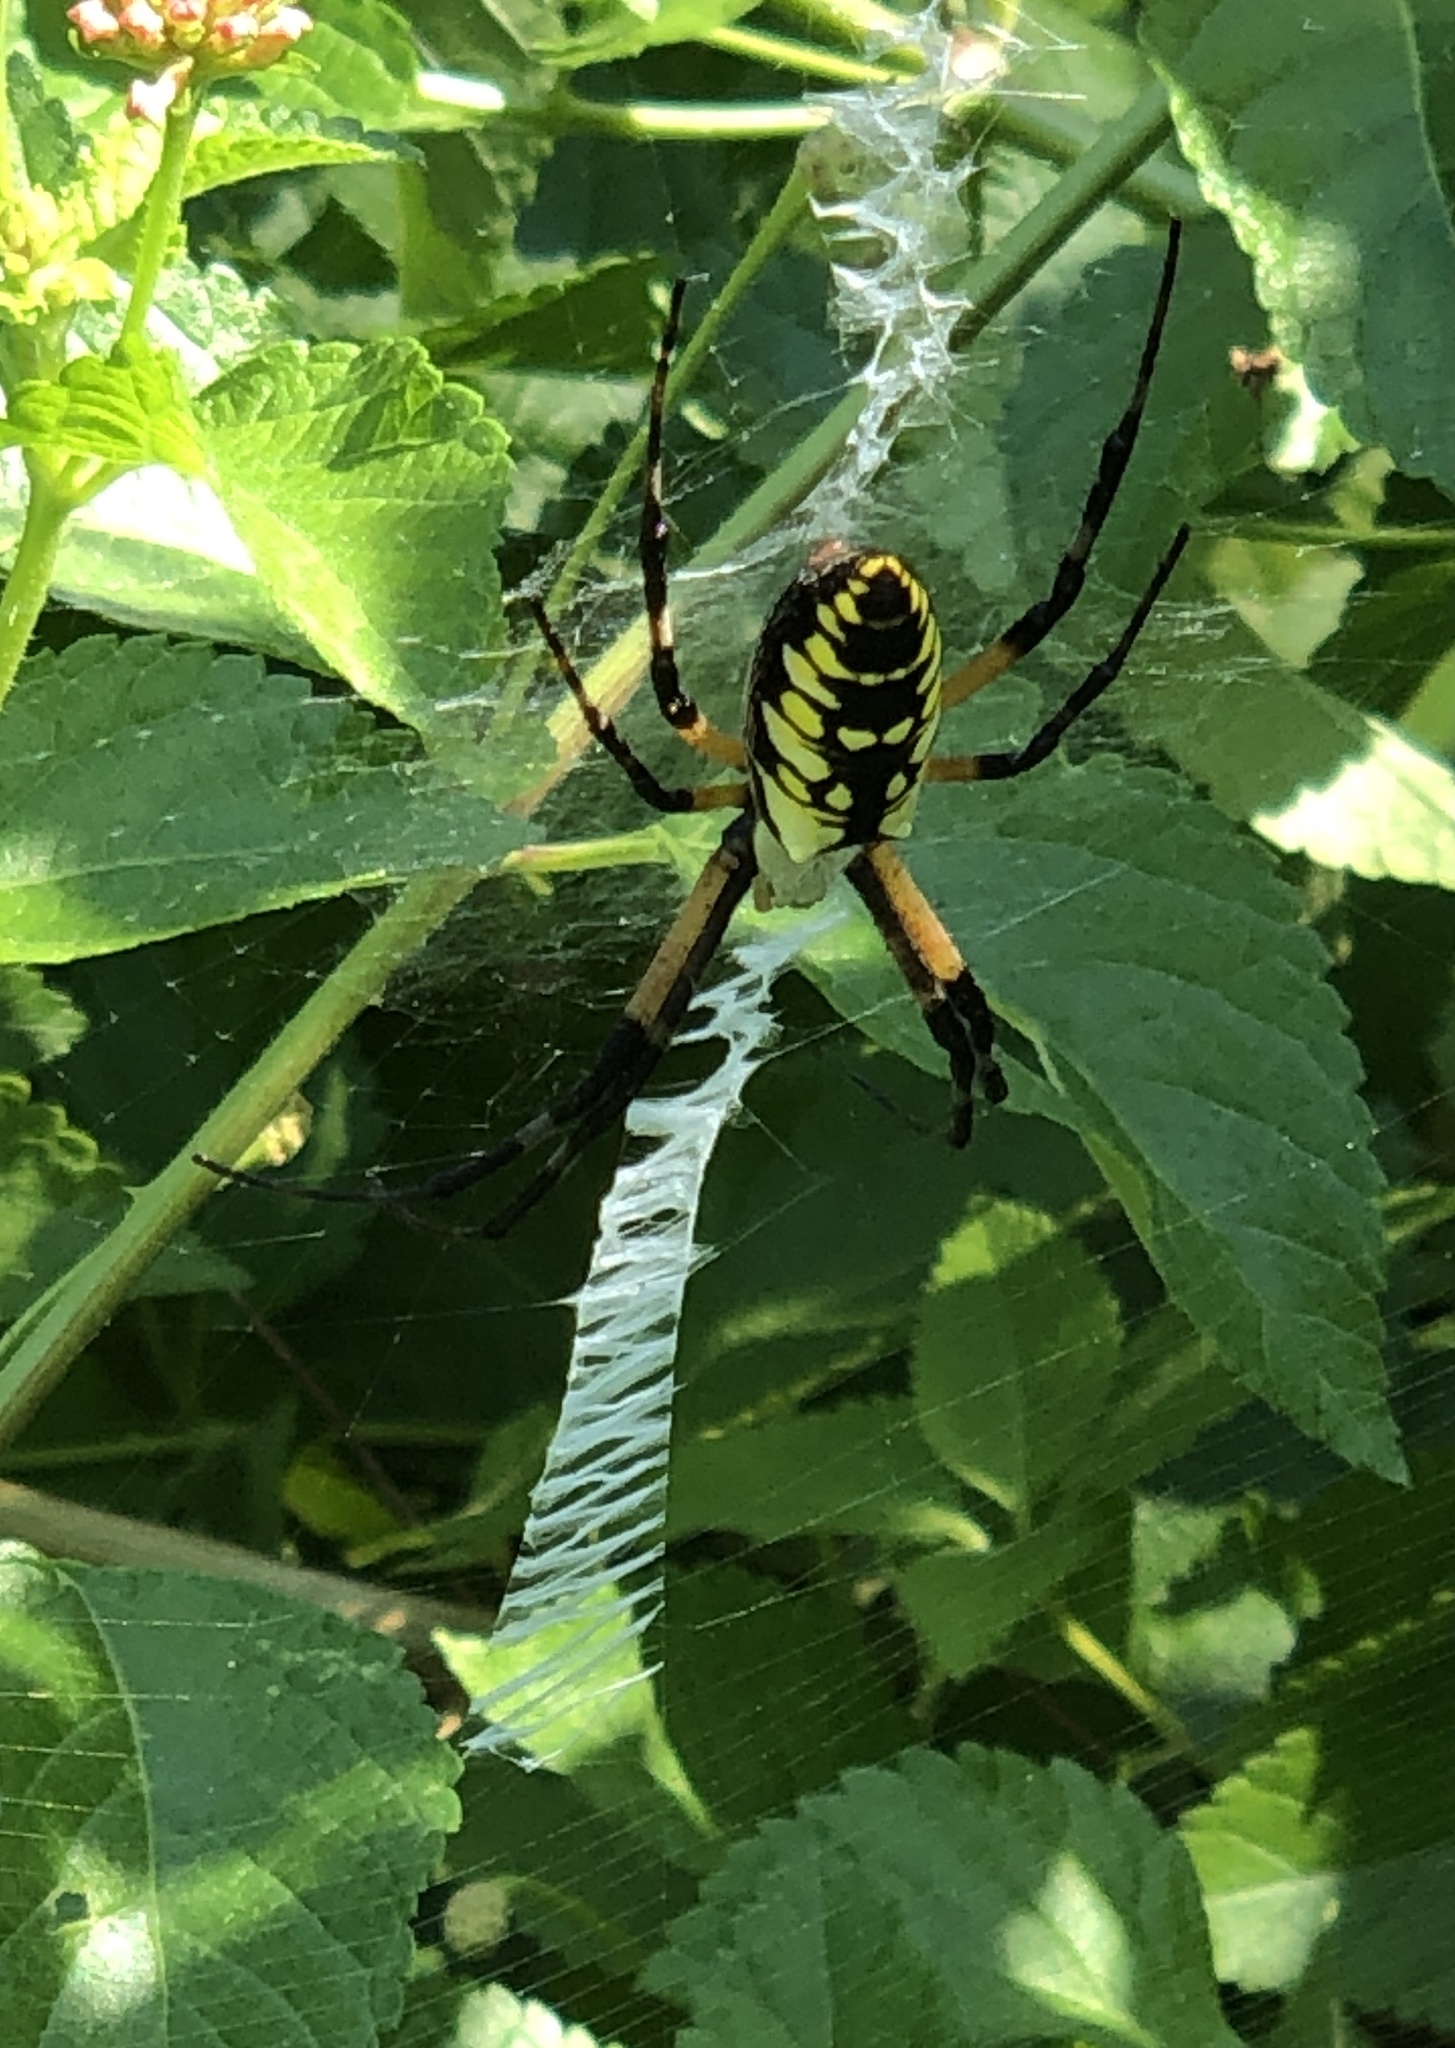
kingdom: Animalia
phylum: Arthropoda
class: Arachnida
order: Araneae
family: Araneidae
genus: Argiope
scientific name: Argiope aurantia
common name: Orb weavers
